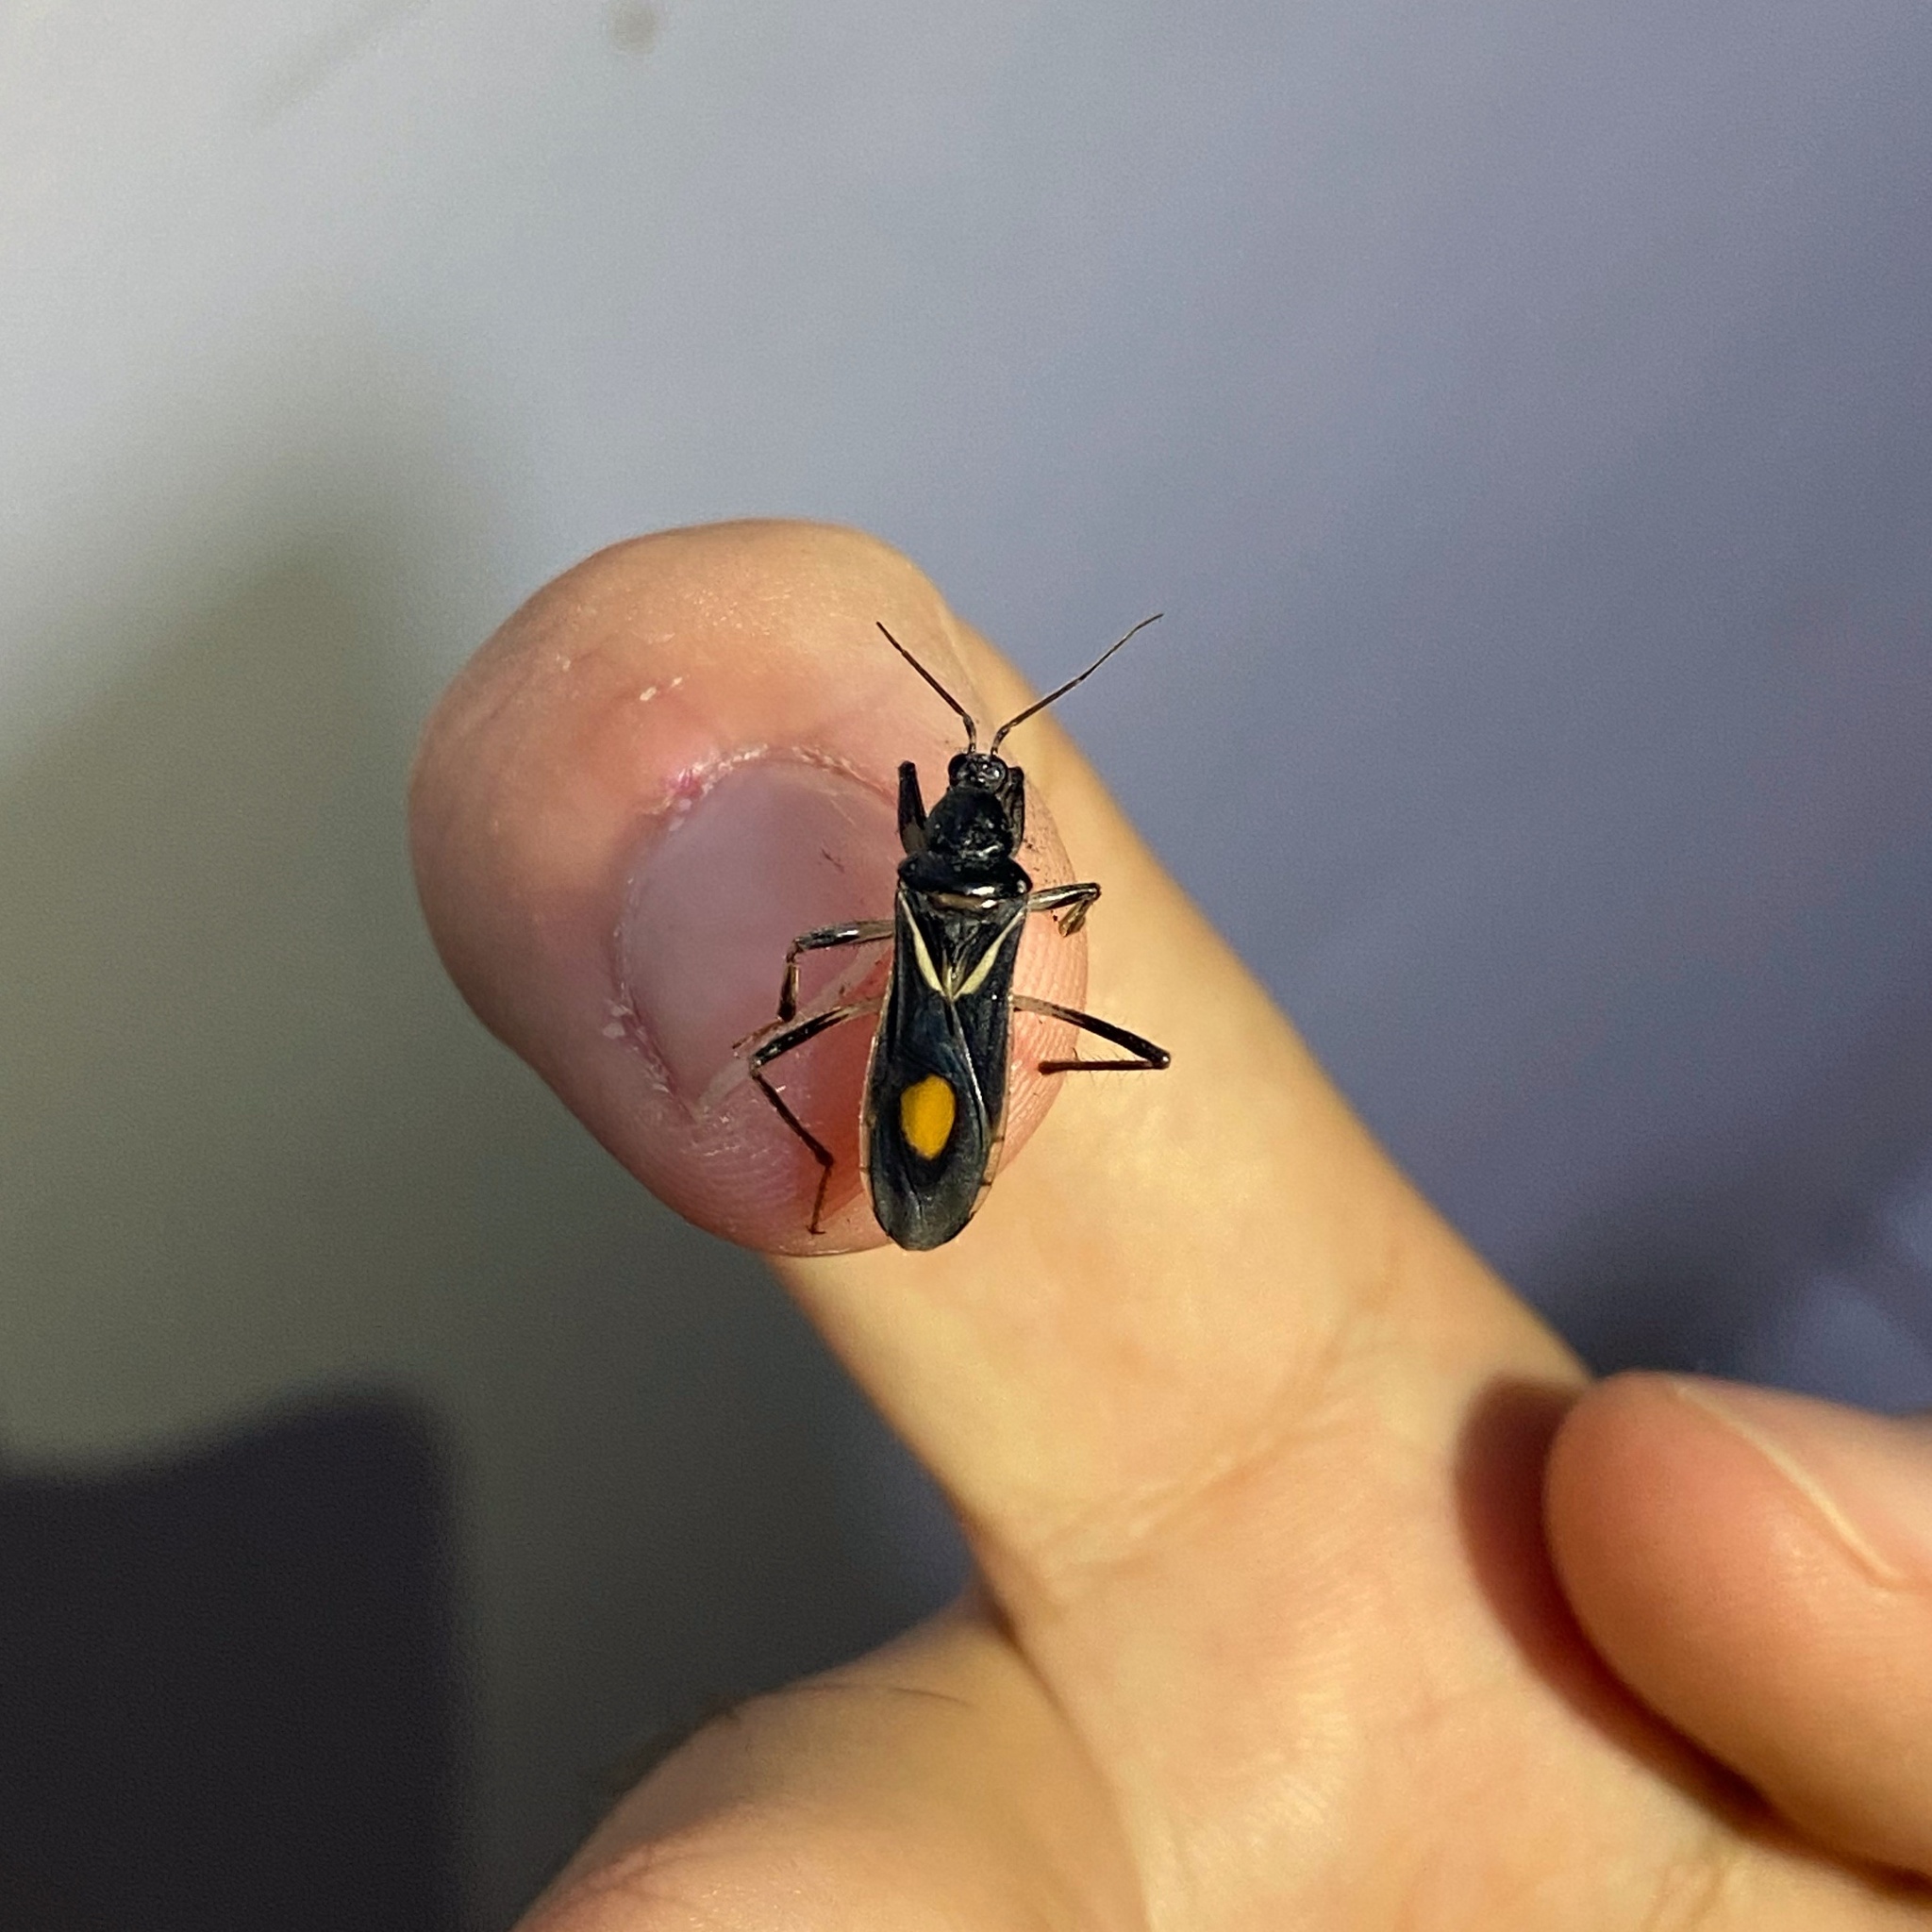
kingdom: Animalia
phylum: Arthropoda
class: Insecta
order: Hemiptera
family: Reduviidae
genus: Rasahus
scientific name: Rasahus hamatus
